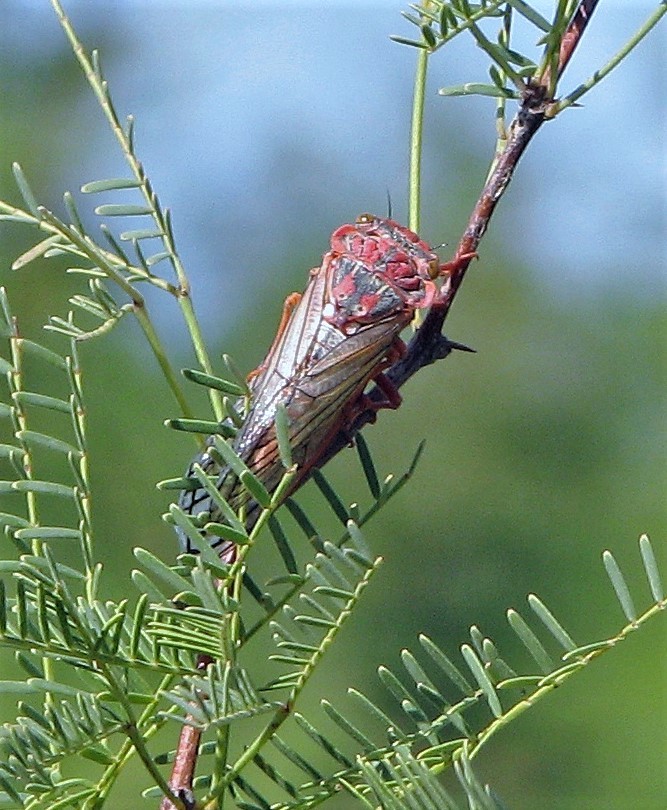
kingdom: Animalia
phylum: Arthropoda
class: Insecta
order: Hemiptera
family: Cicadidae
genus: Calliopsida
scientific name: Calliopsida cinnabarina
